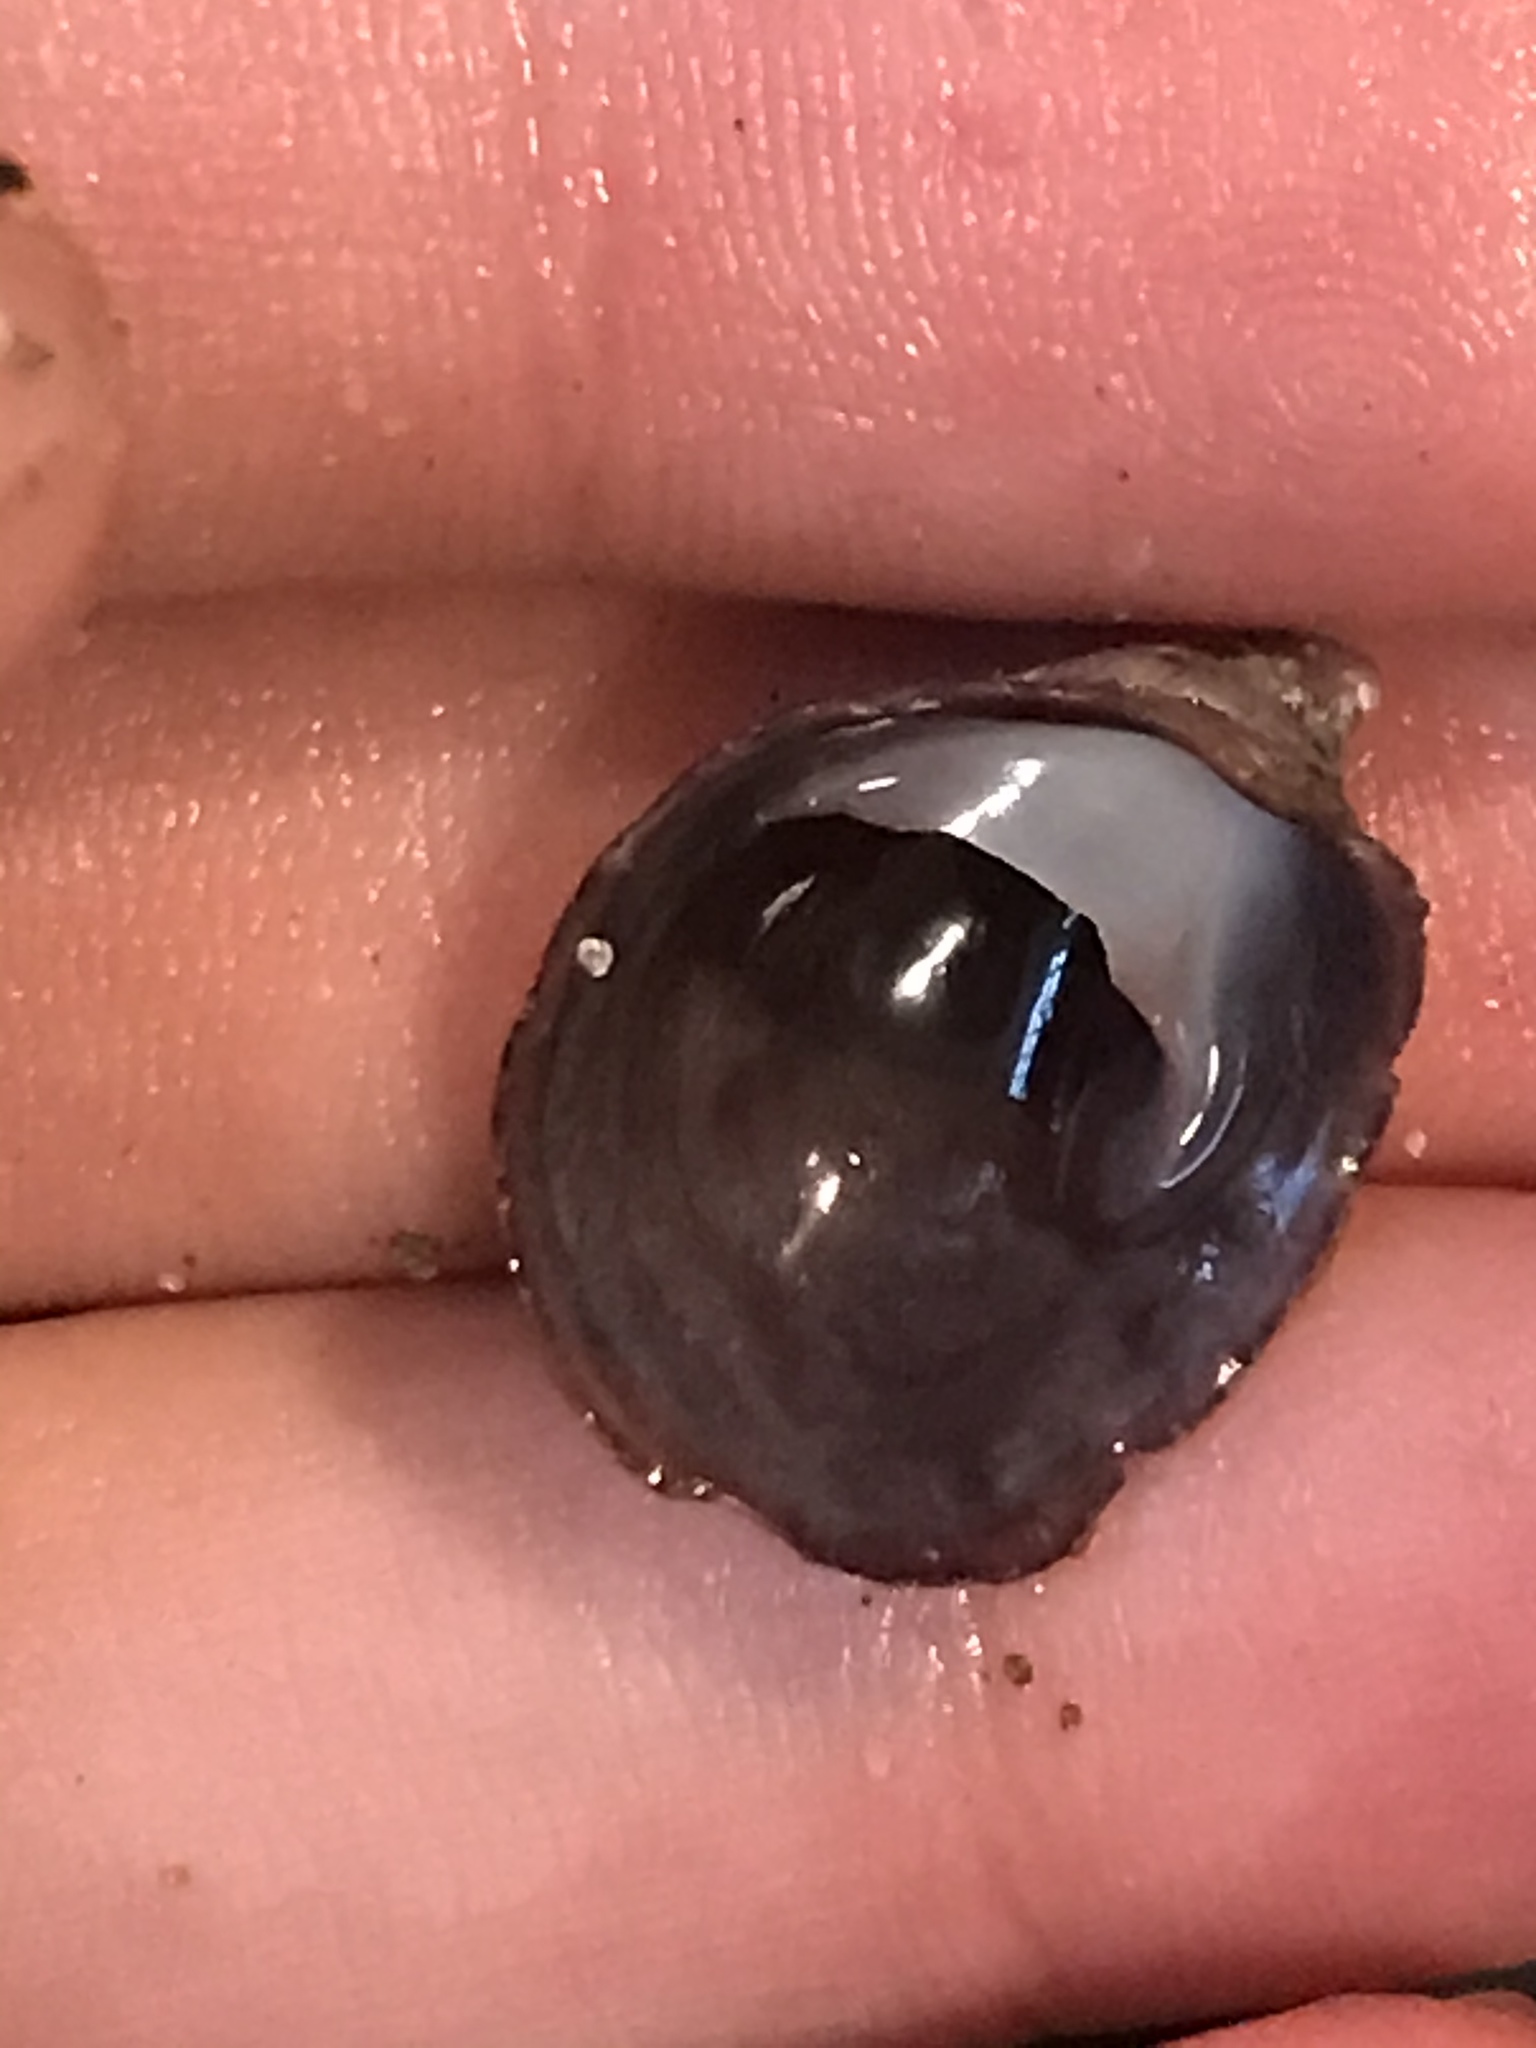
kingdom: Animalia
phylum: Mollusca
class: Gastropoda
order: Littorinimorpha
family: Calyptraeidae
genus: Crepidula
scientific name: Crepidula adunca
